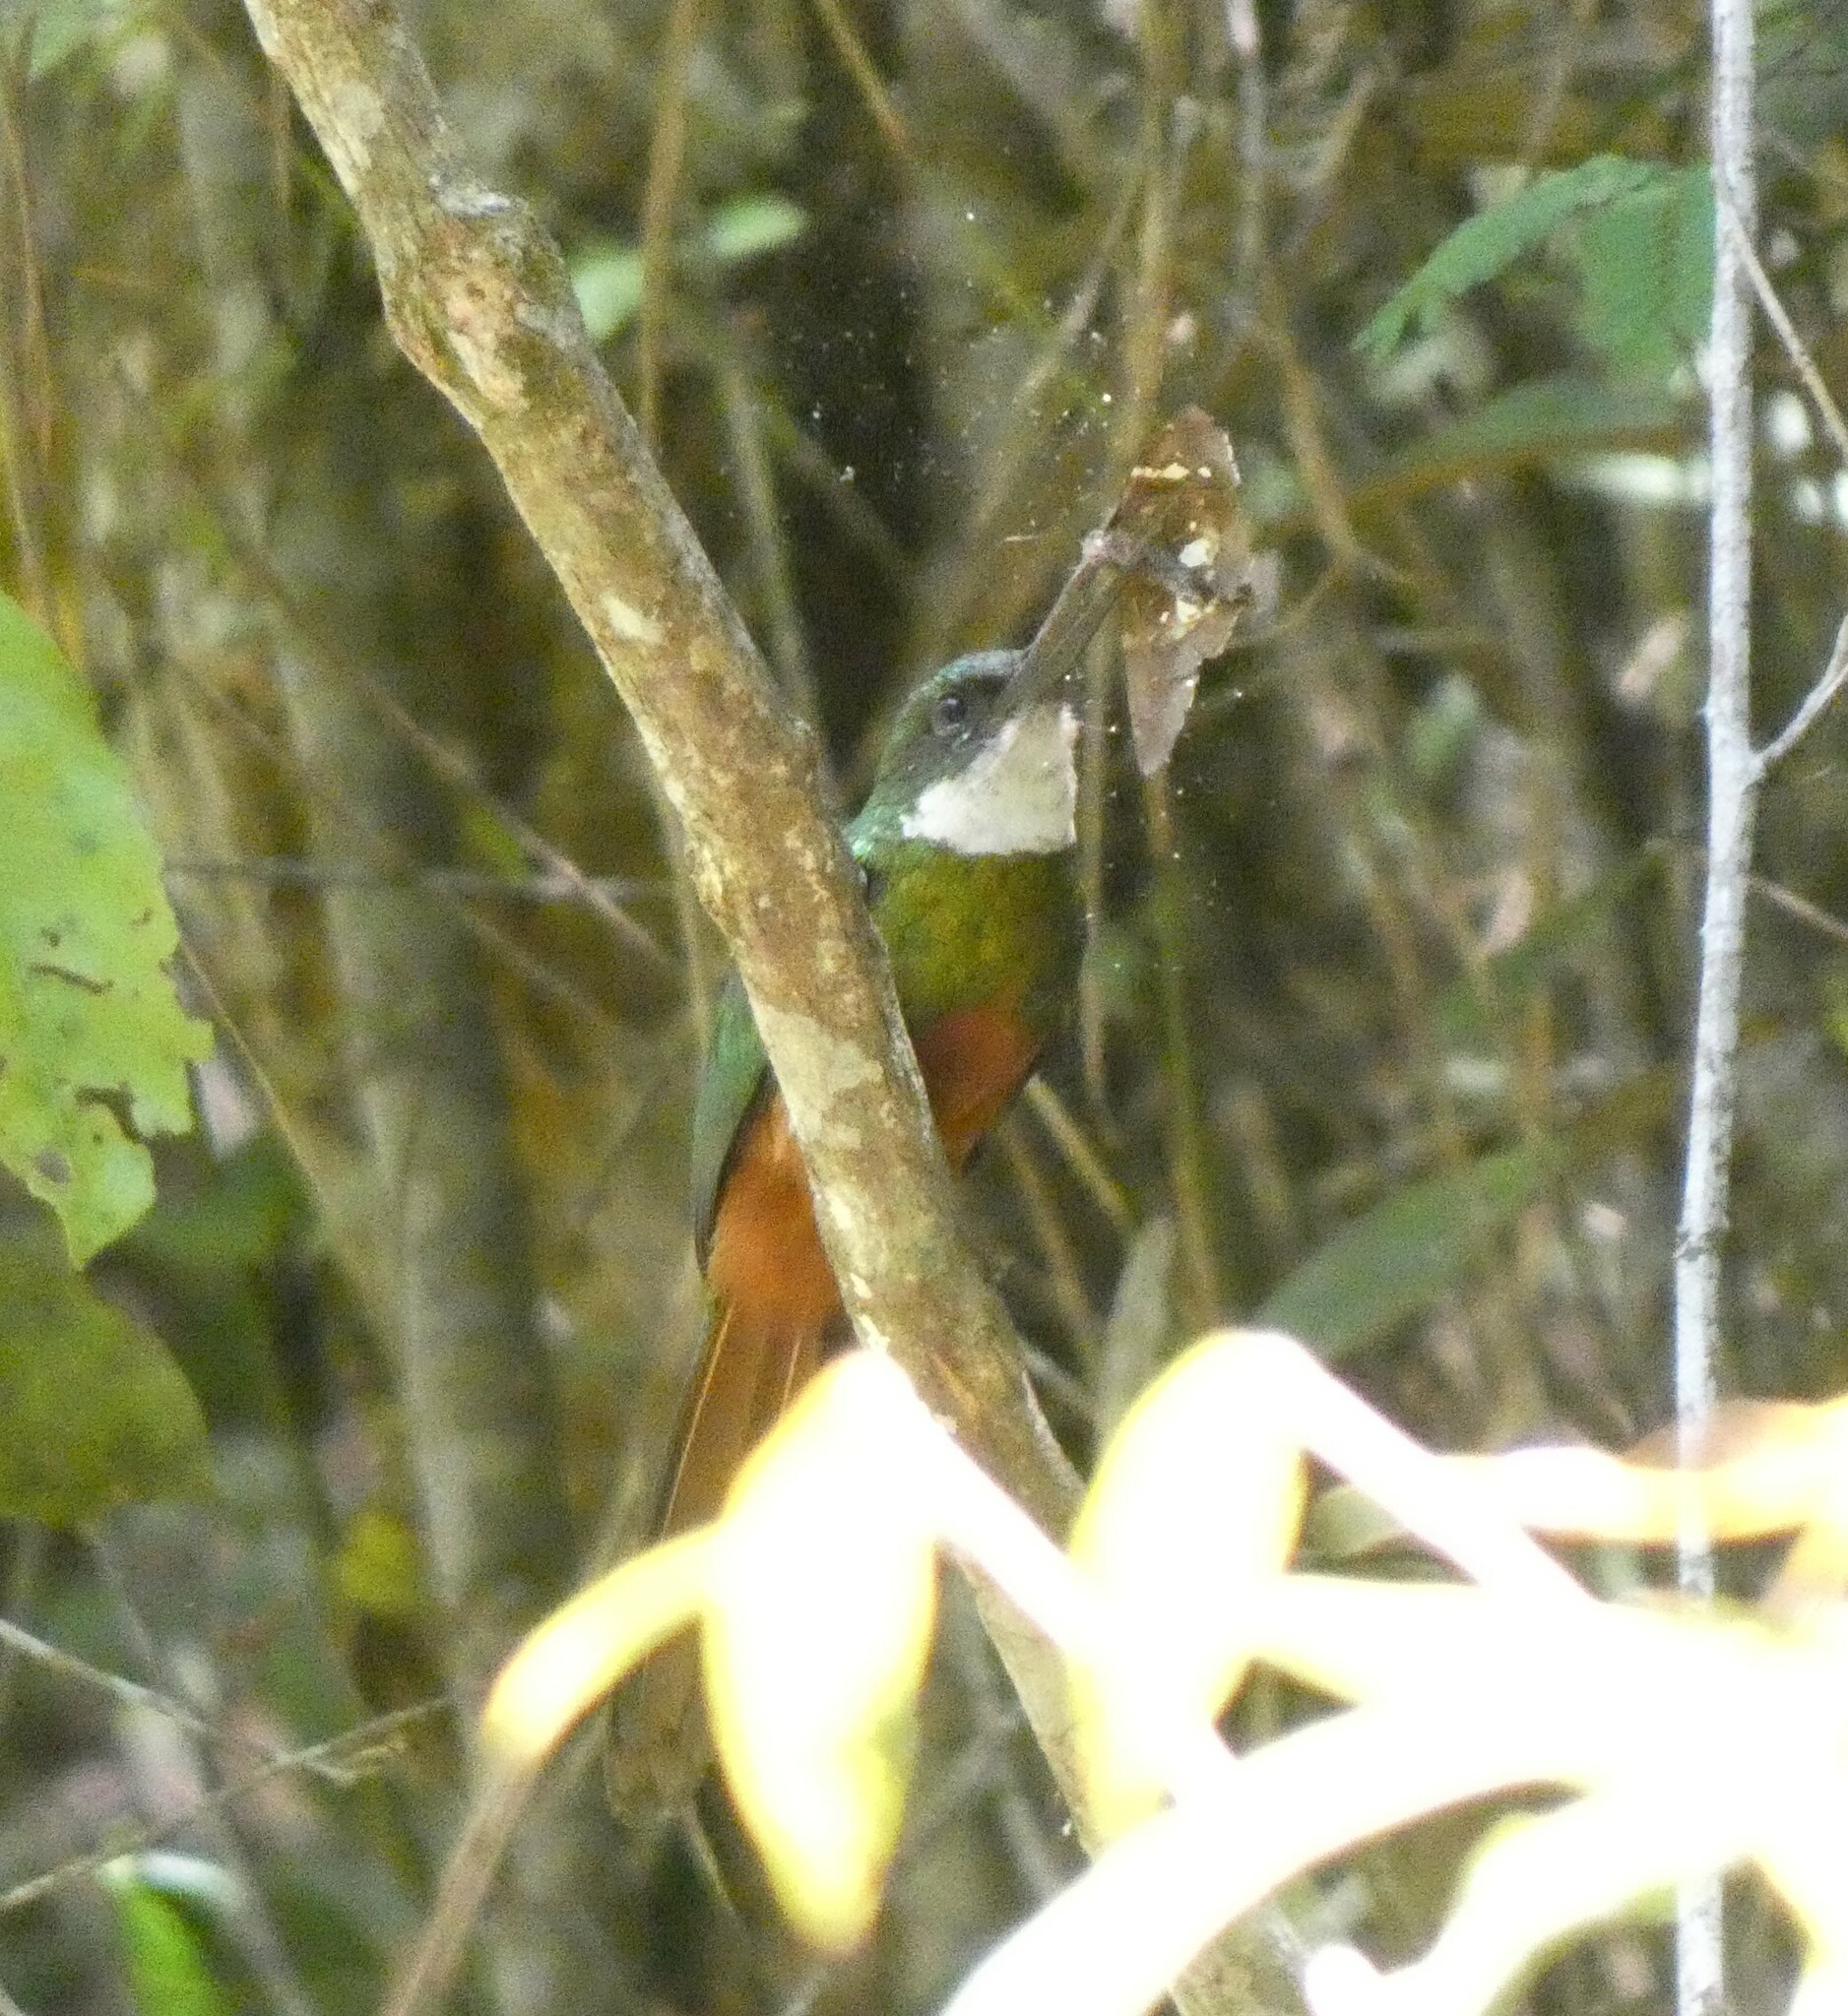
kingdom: Animalia
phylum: Chordata
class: Aves
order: Piciformes
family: Galbulidae
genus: Galbula
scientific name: Galbula ruficauda
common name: Rufous-tailed jacamar
